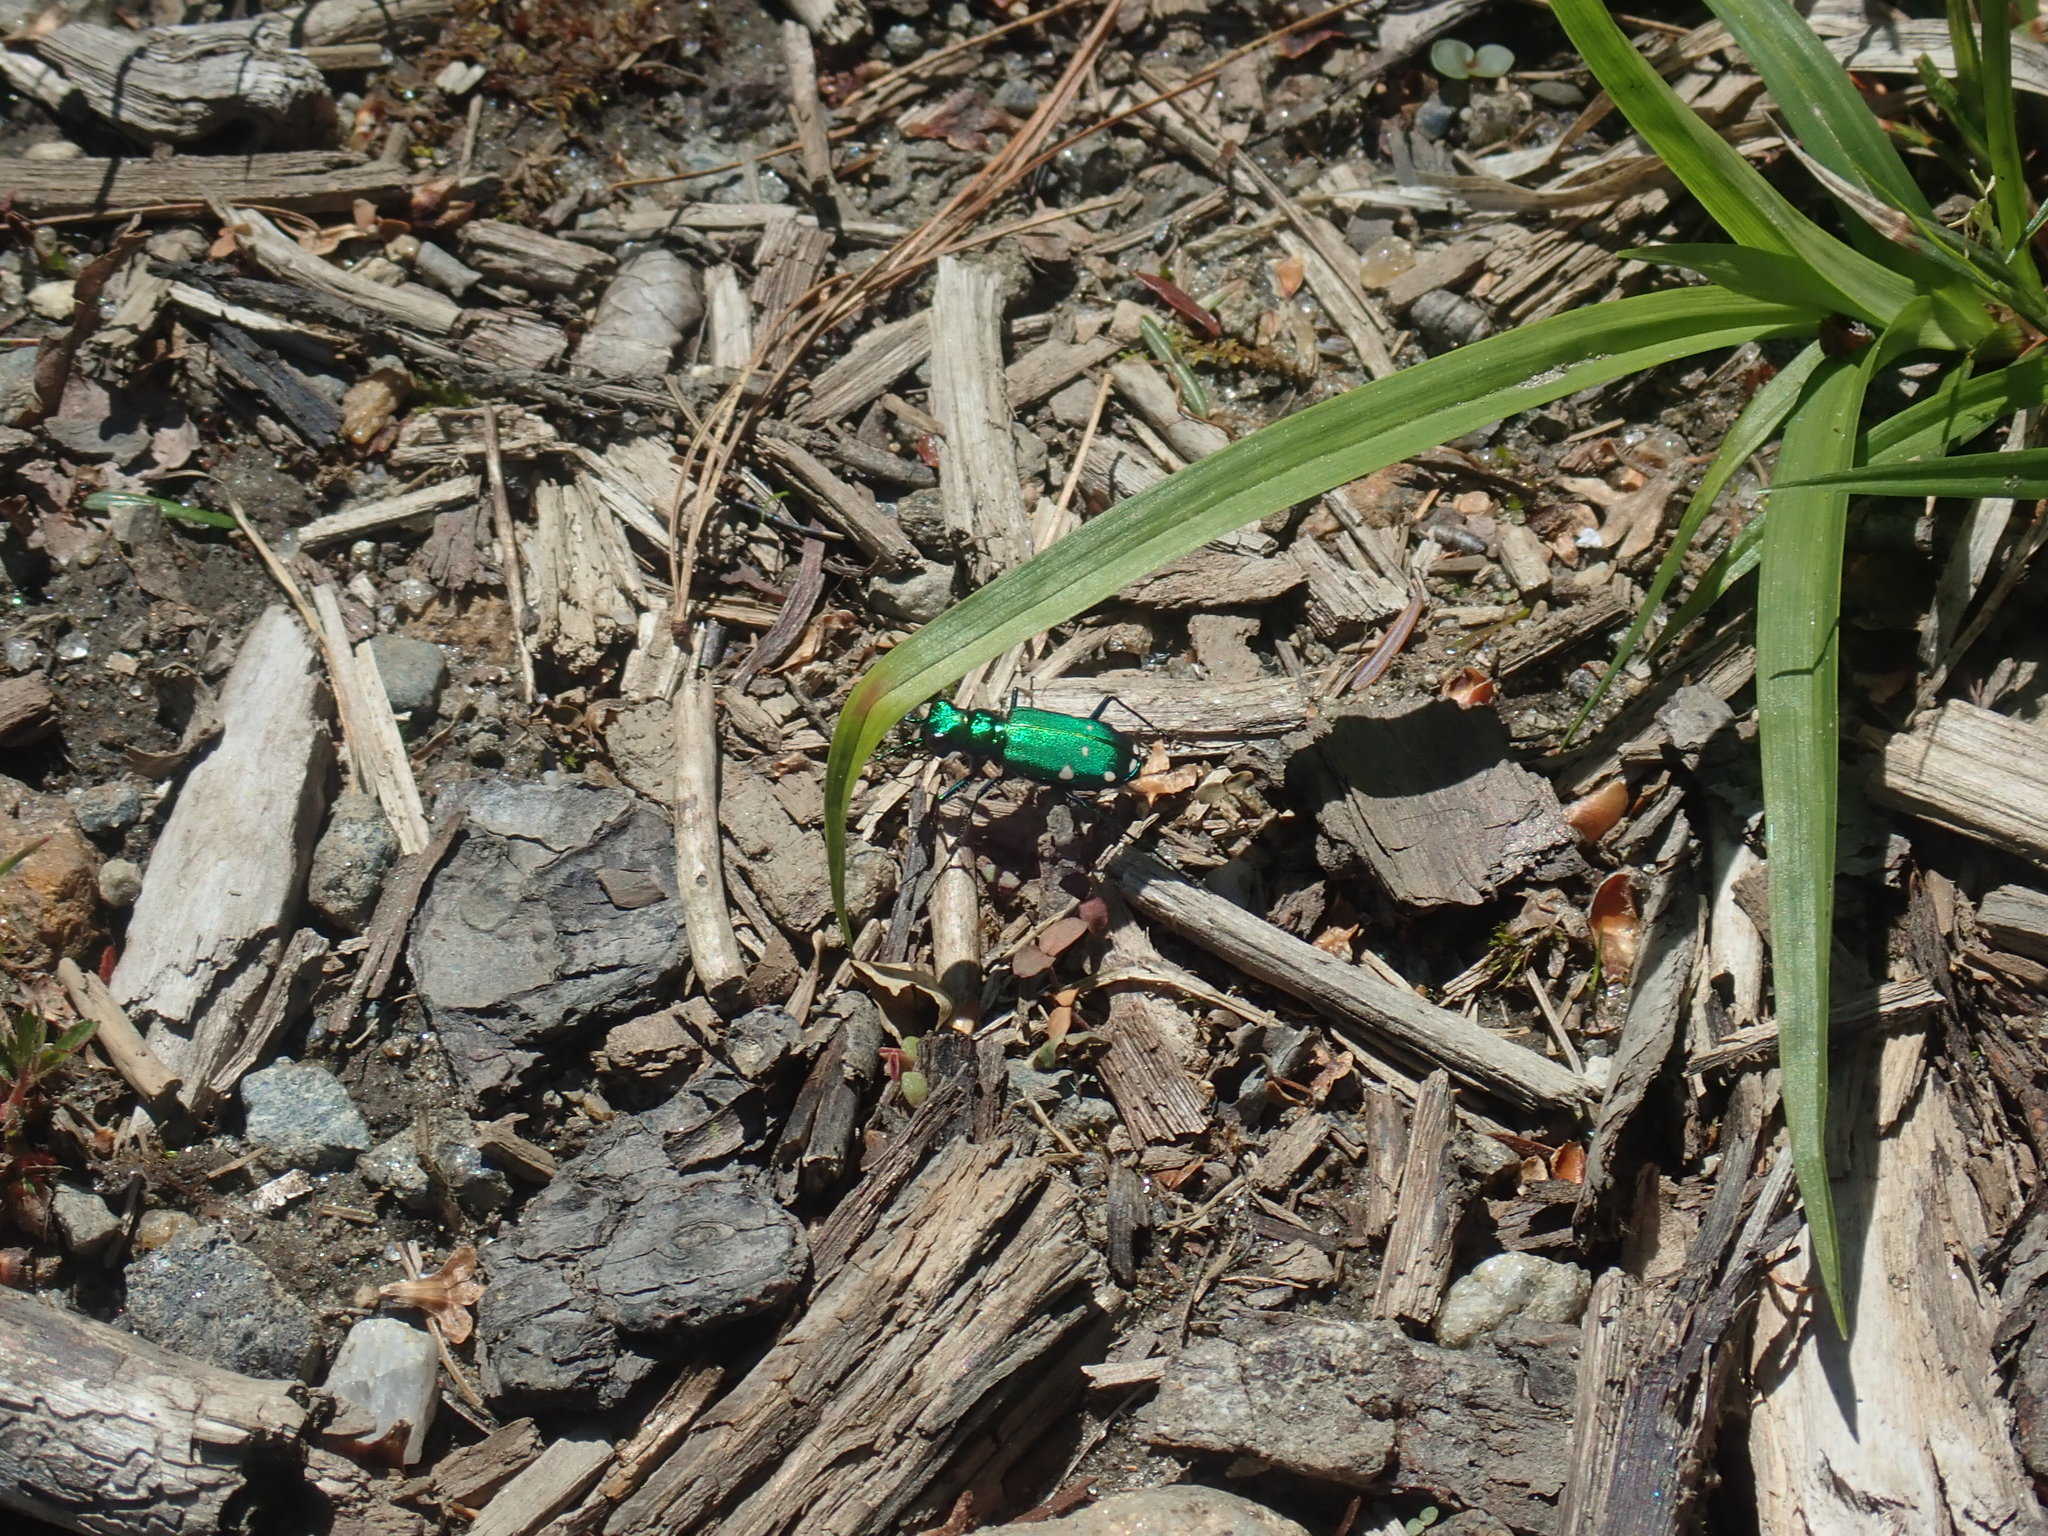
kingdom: Animalia
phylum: Arthropoda
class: Insecta
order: Coleoptera
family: Carabidae
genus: Cicindela
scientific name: Cicindela sexguttata
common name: Six-spotted tiger beetle
